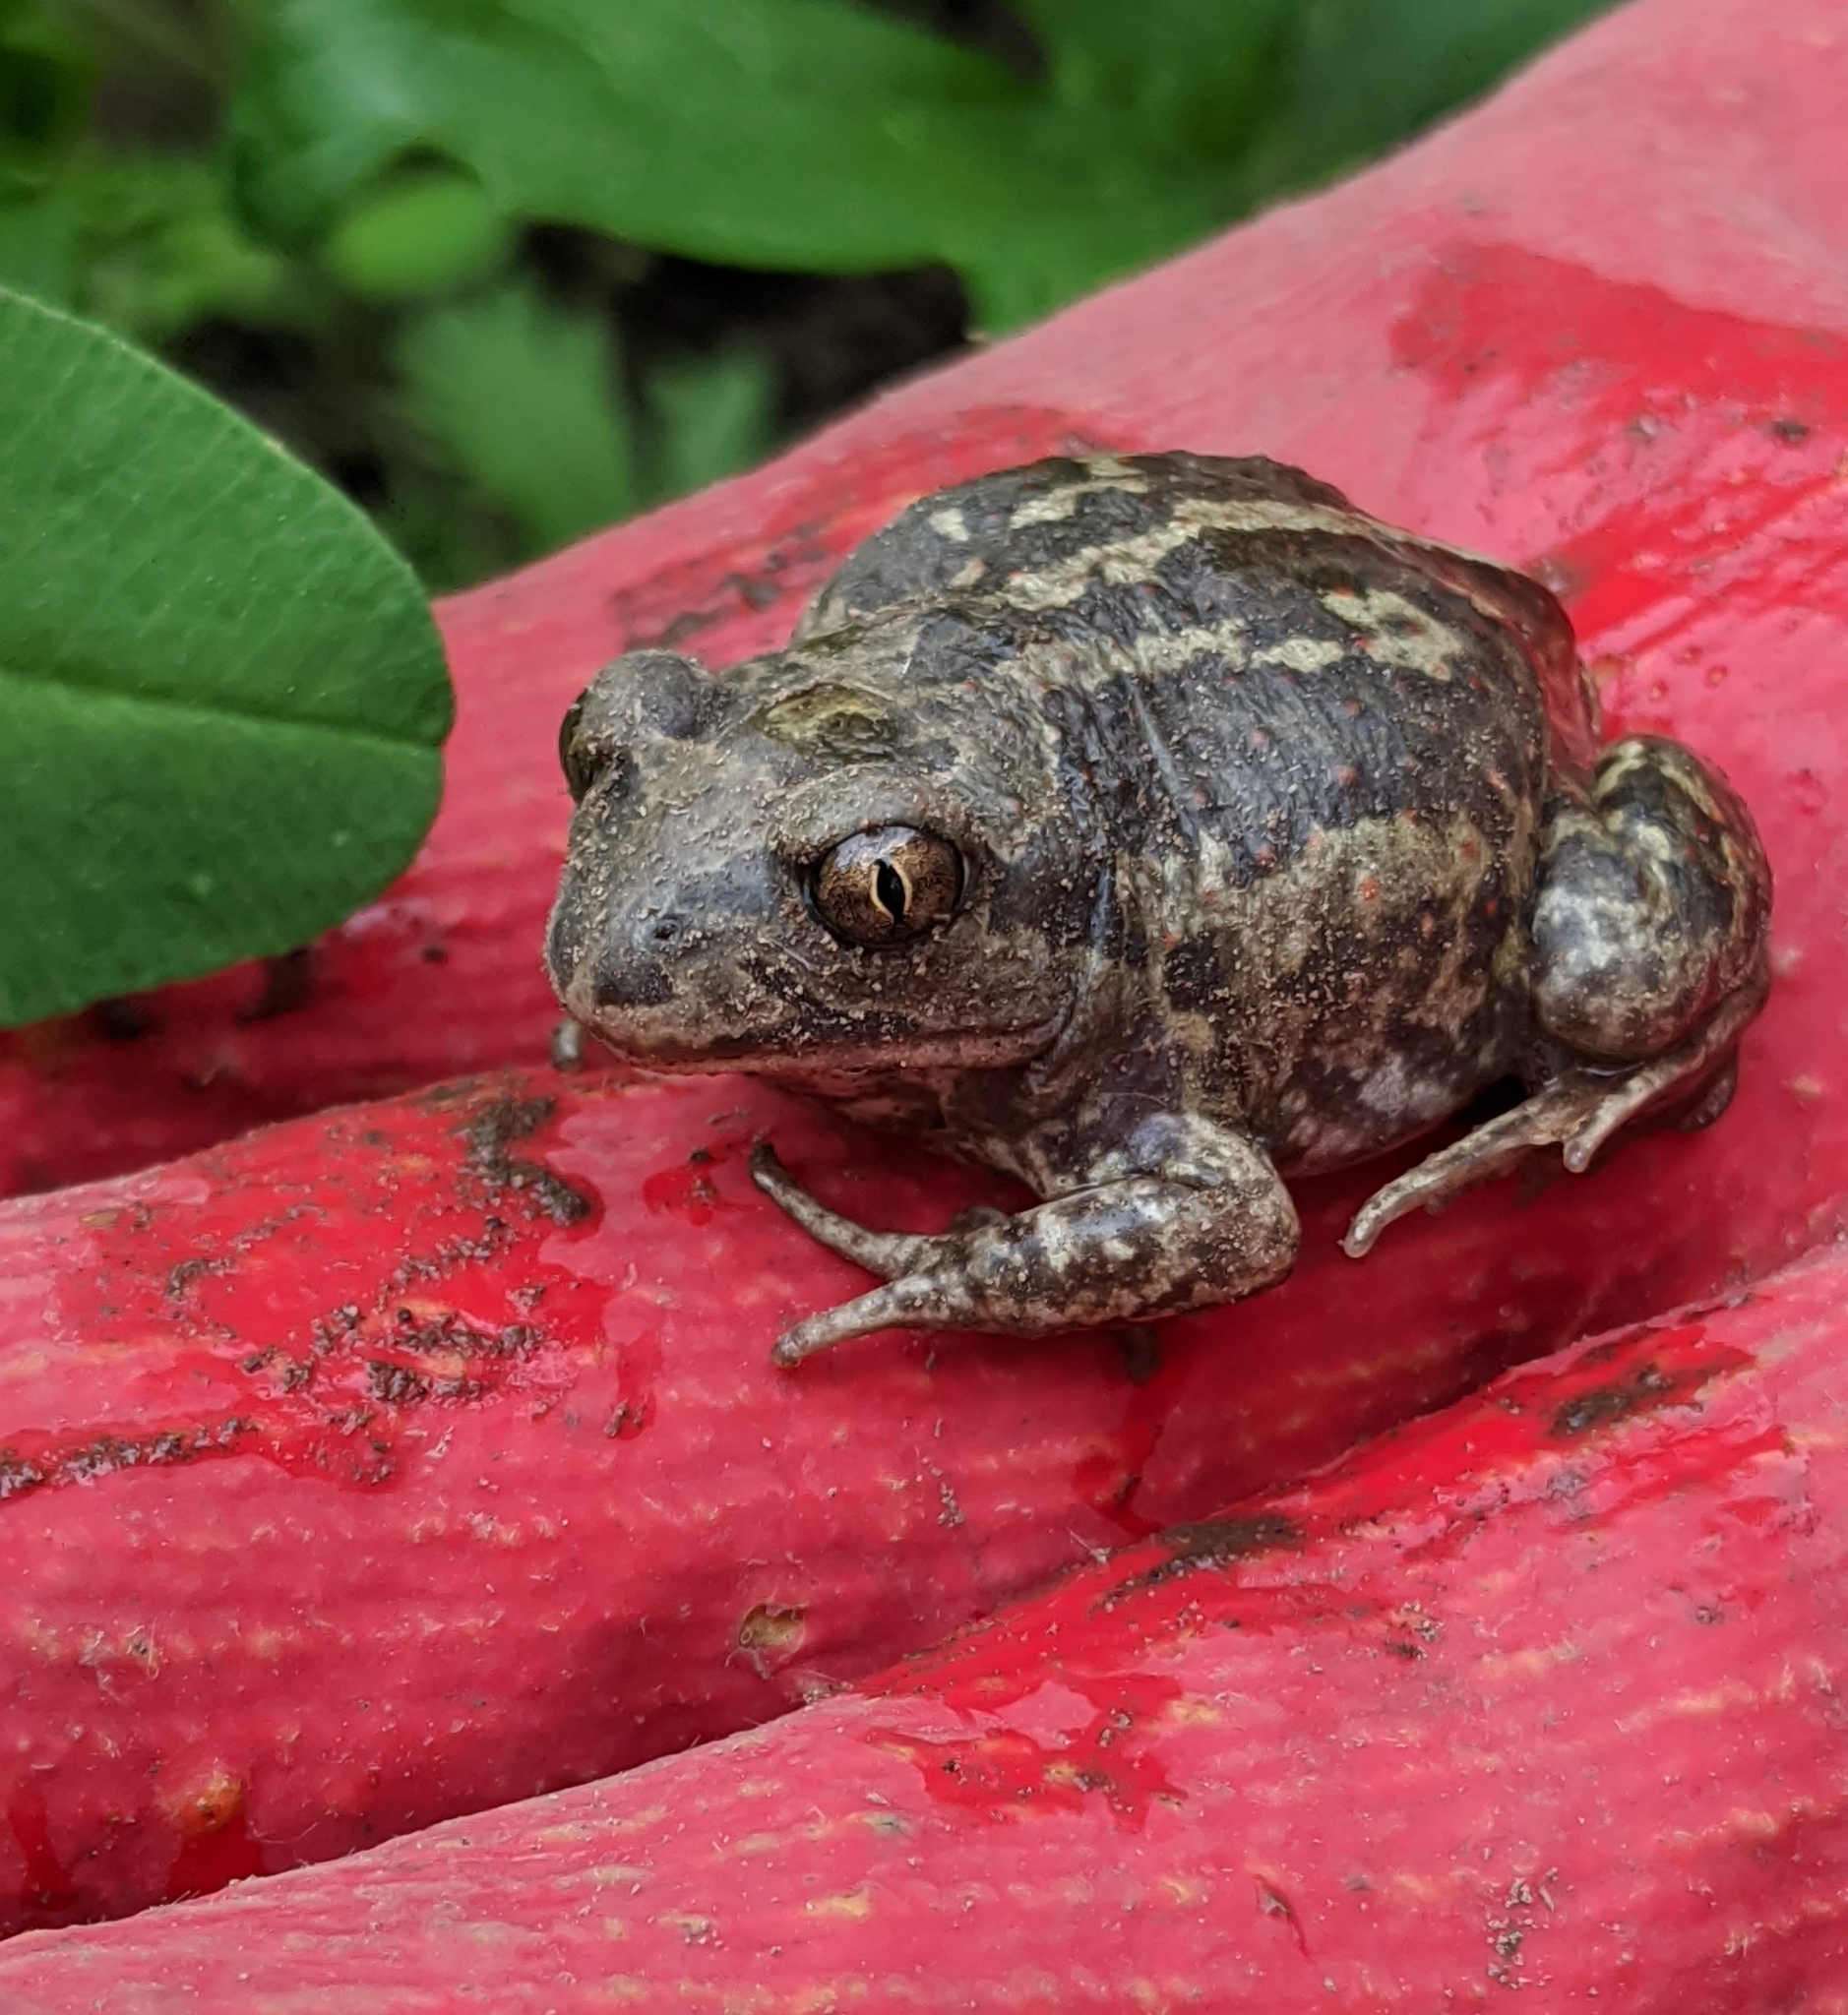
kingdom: Animalia
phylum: Chordata
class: Amphibia
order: Anura
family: Pelobatidae
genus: Pelobates
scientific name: Pelobates vespertinus
